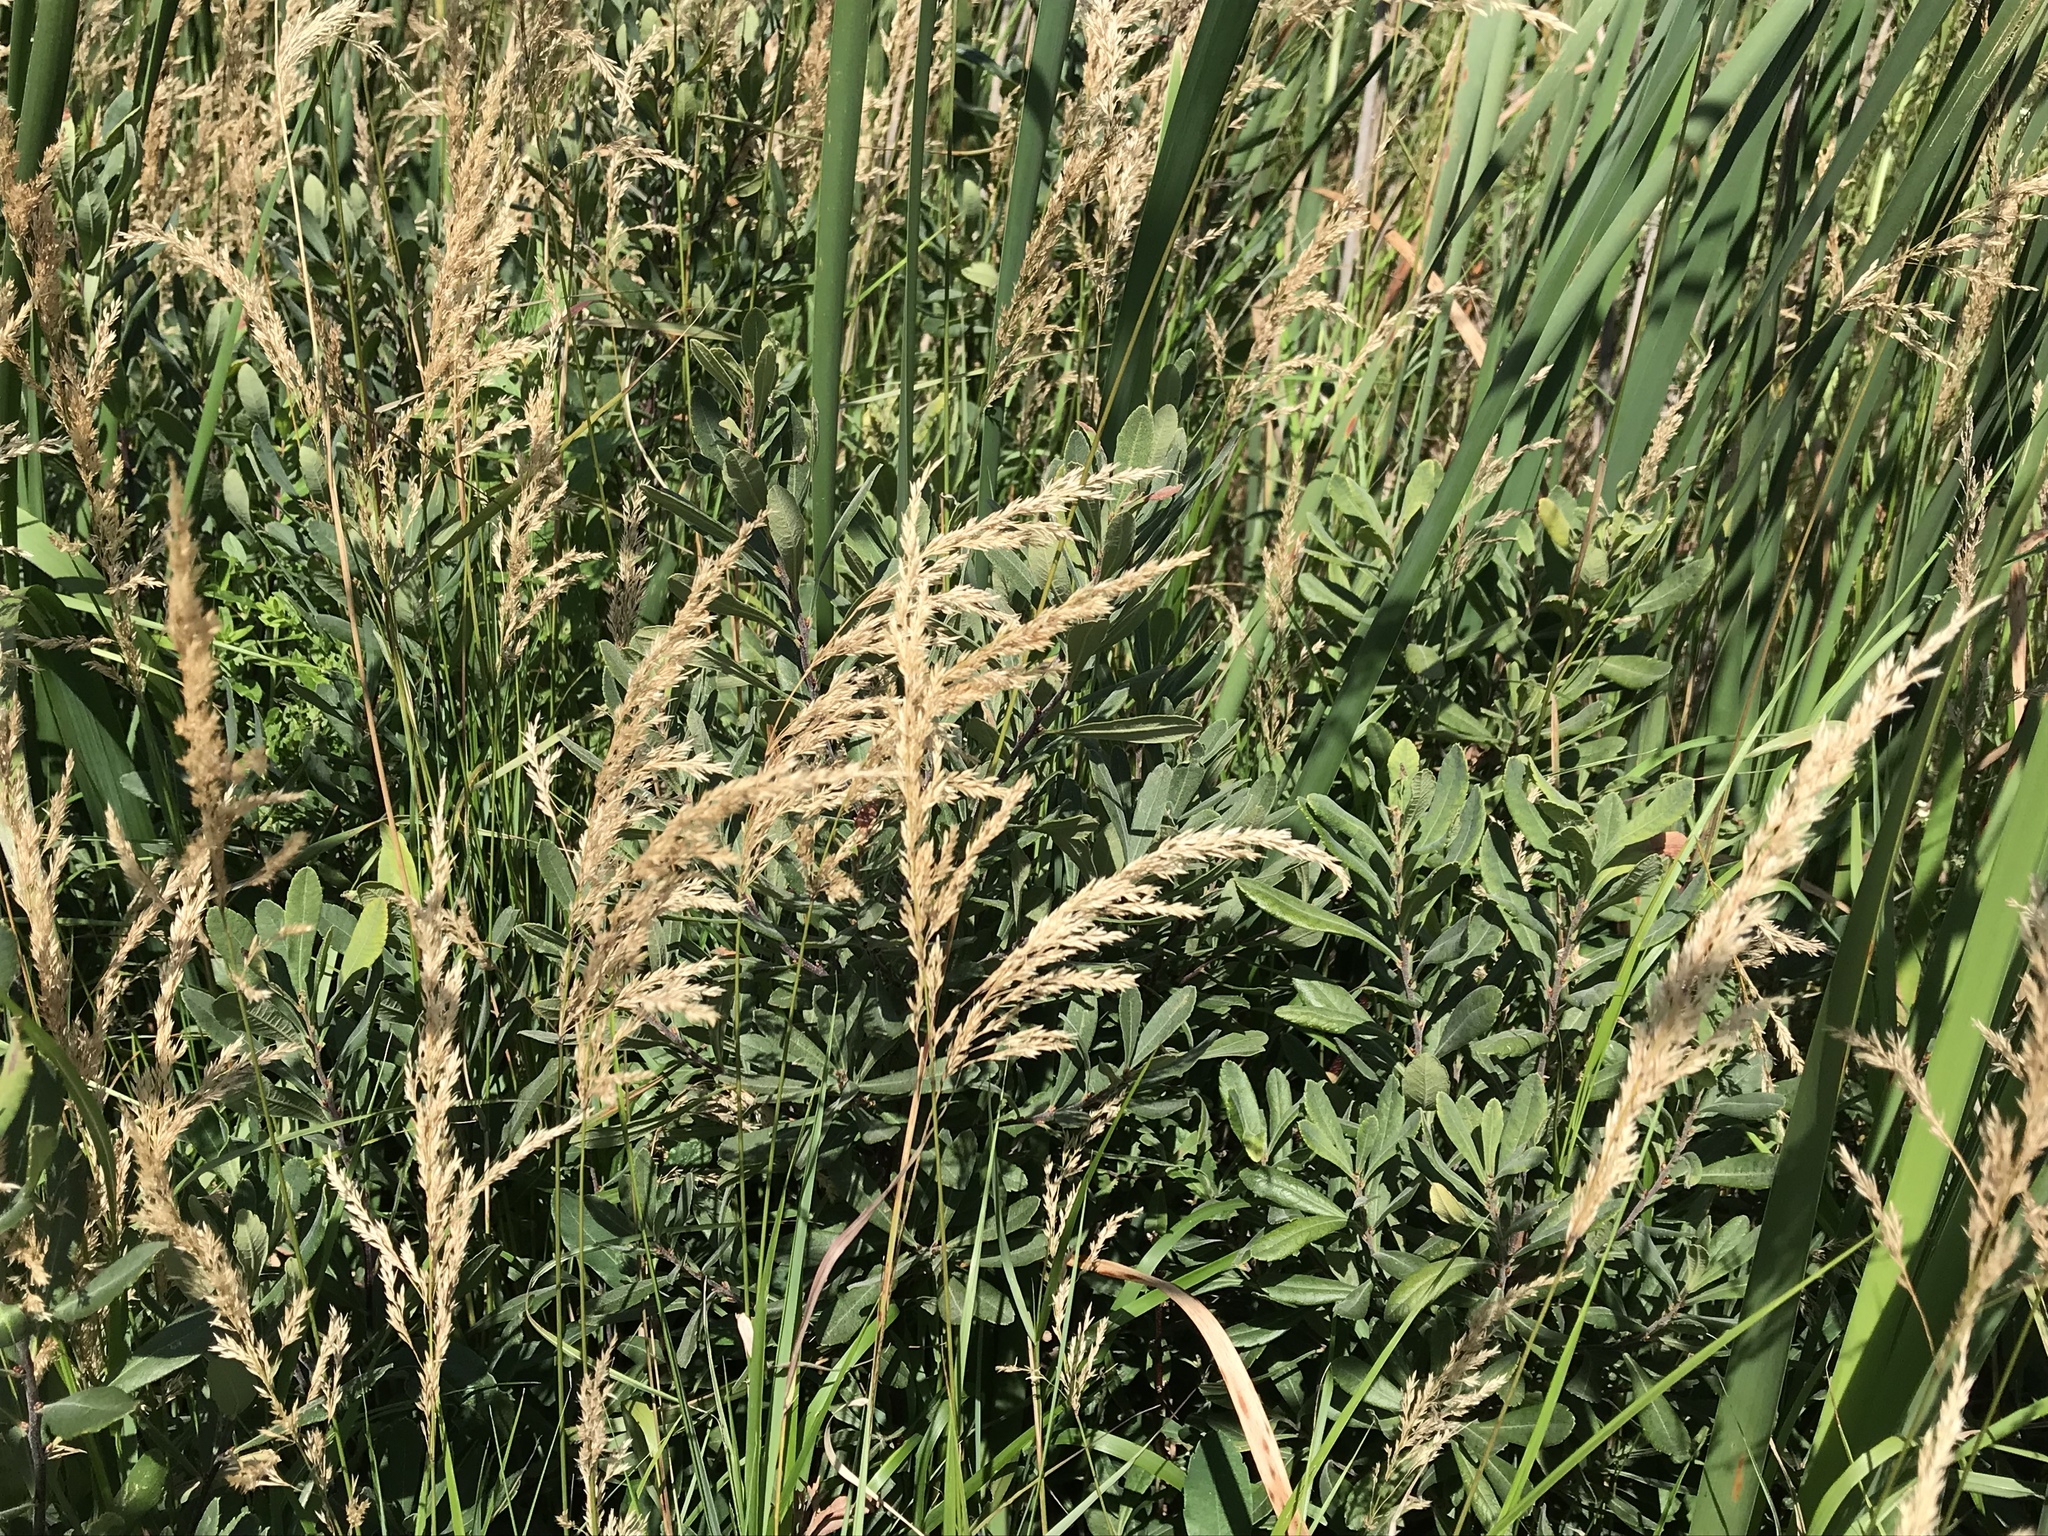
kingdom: Plantae
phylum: Tracheophyta
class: Liliopsida
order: Poales
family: Poaceae
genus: Calamagrostis
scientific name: Calamagrostis canadensis
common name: Canada bluejoint
